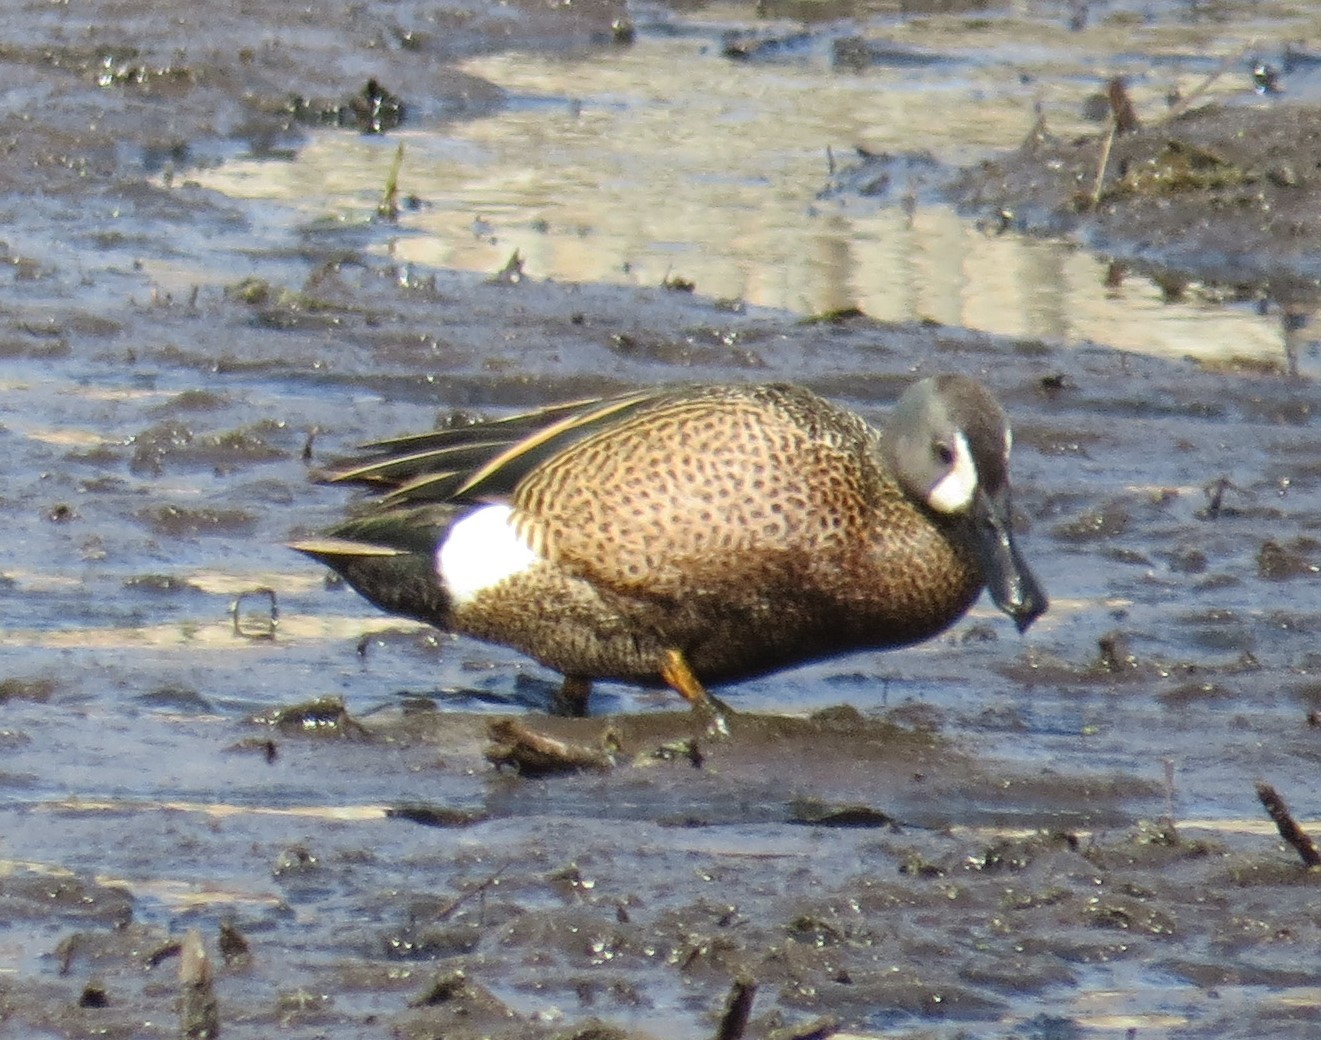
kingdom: Animalia
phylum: Chordata
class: Aves
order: Anseriformes
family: Anatidae
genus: Spatula
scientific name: Spatula discors
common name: Blue-winged teal
